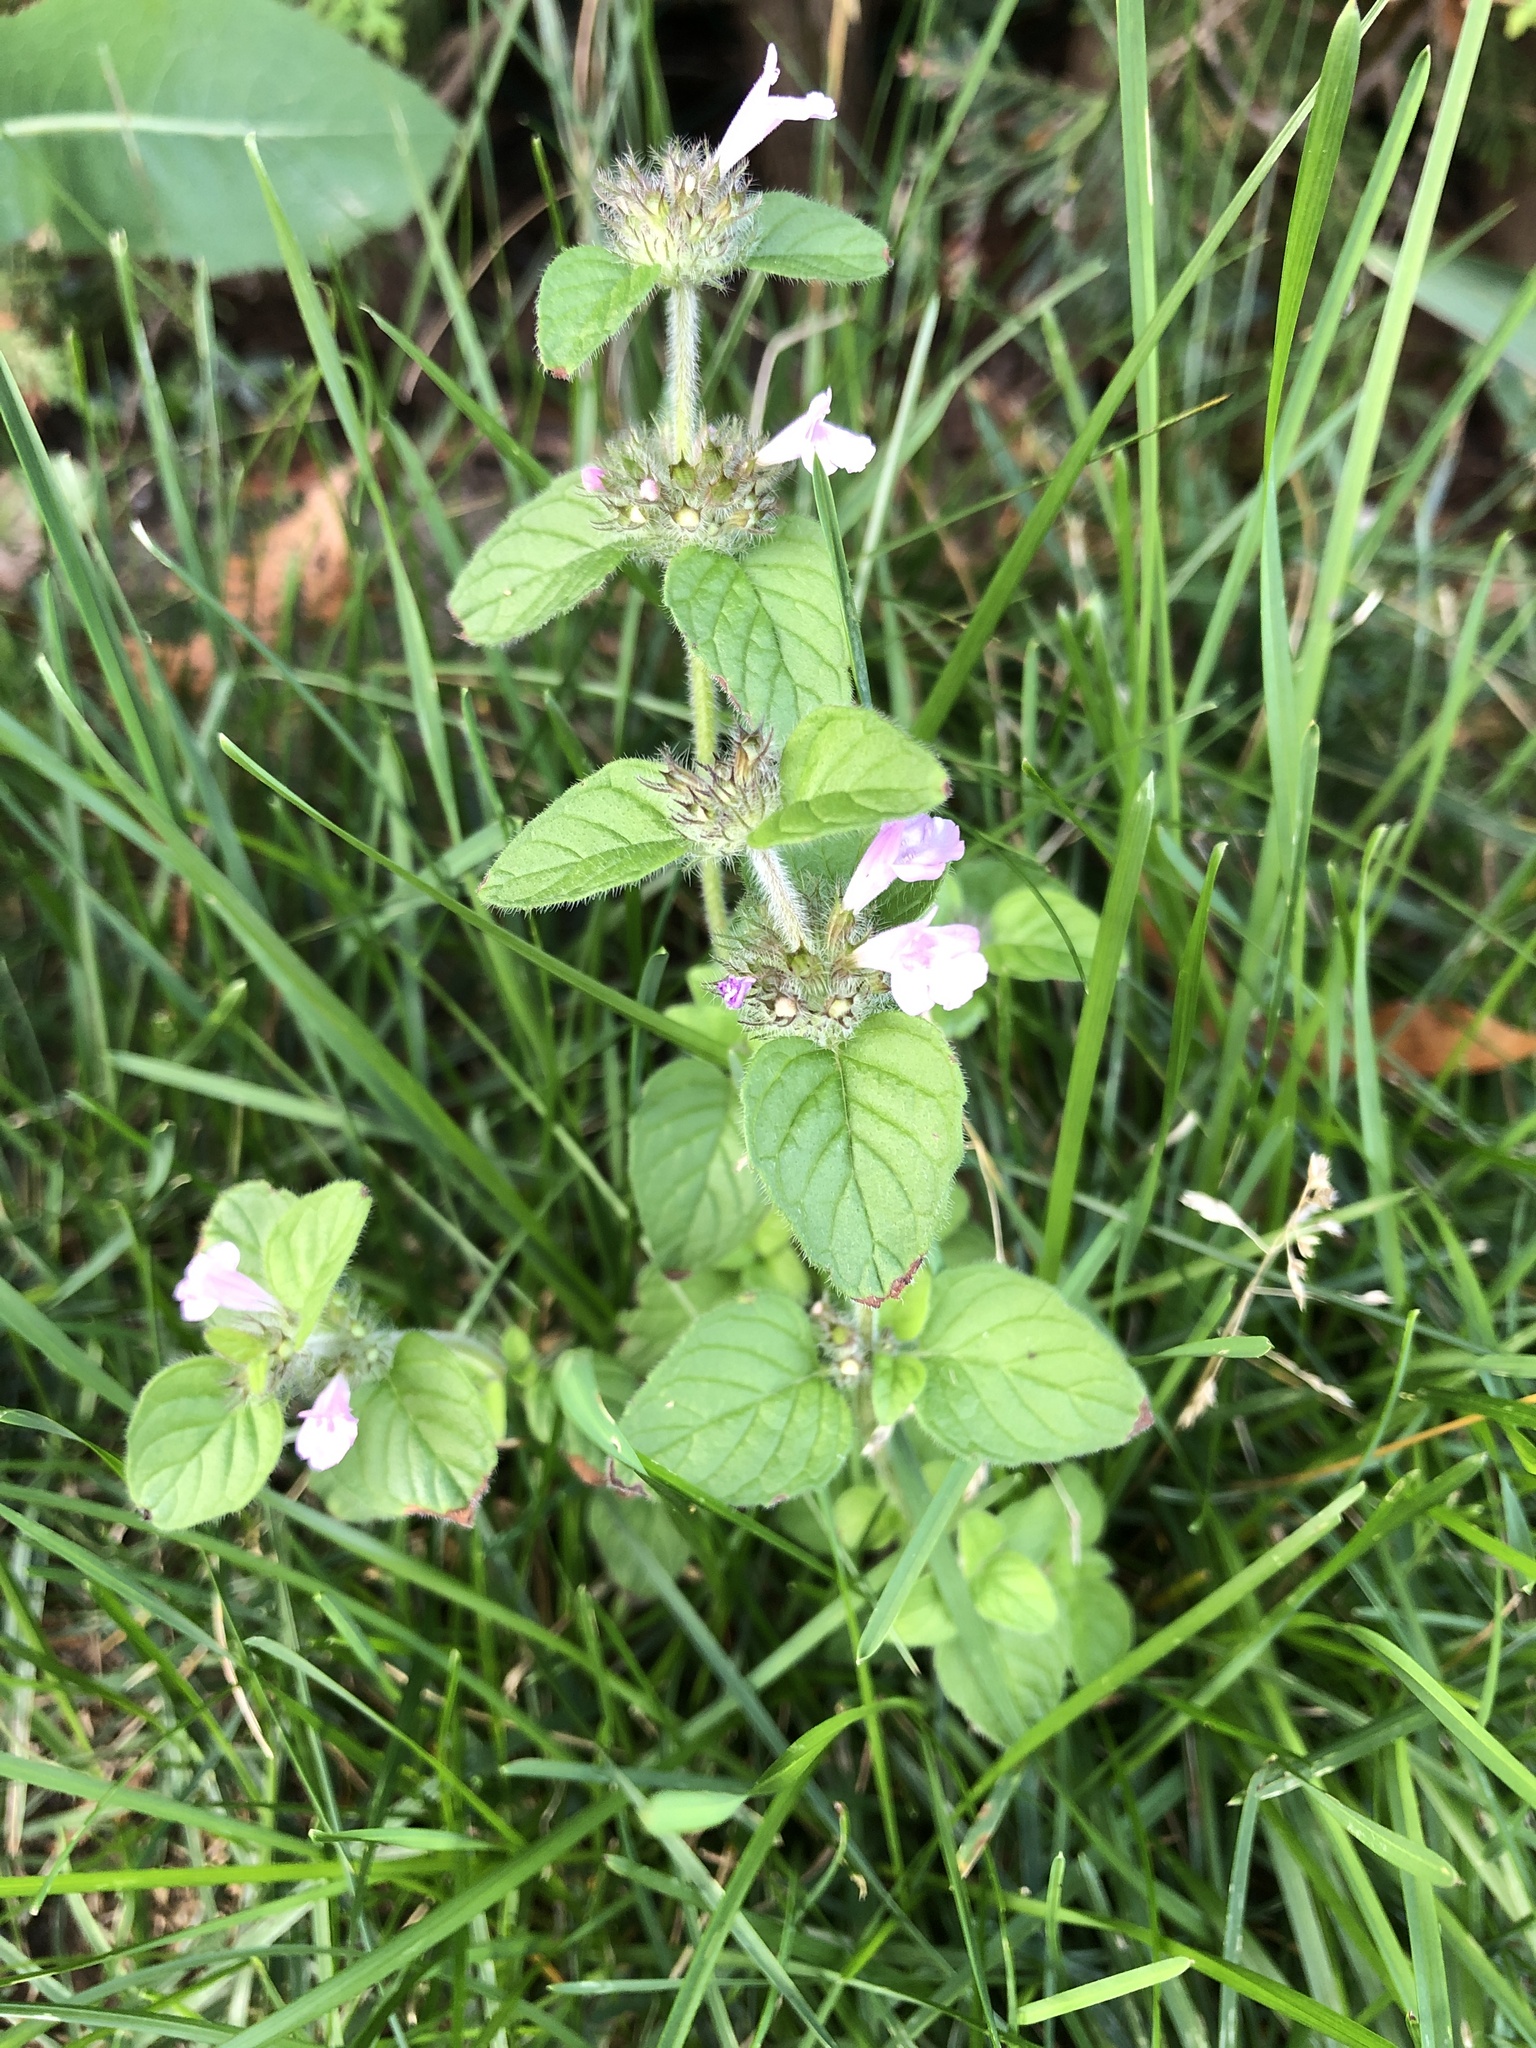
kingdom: Plantae
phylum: Tracheophyta
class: Magnoliopsida
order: Lamiales
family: Lamiaceae
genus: Clinopodium
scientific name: Clinopodium vulgare
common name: Wild basil
